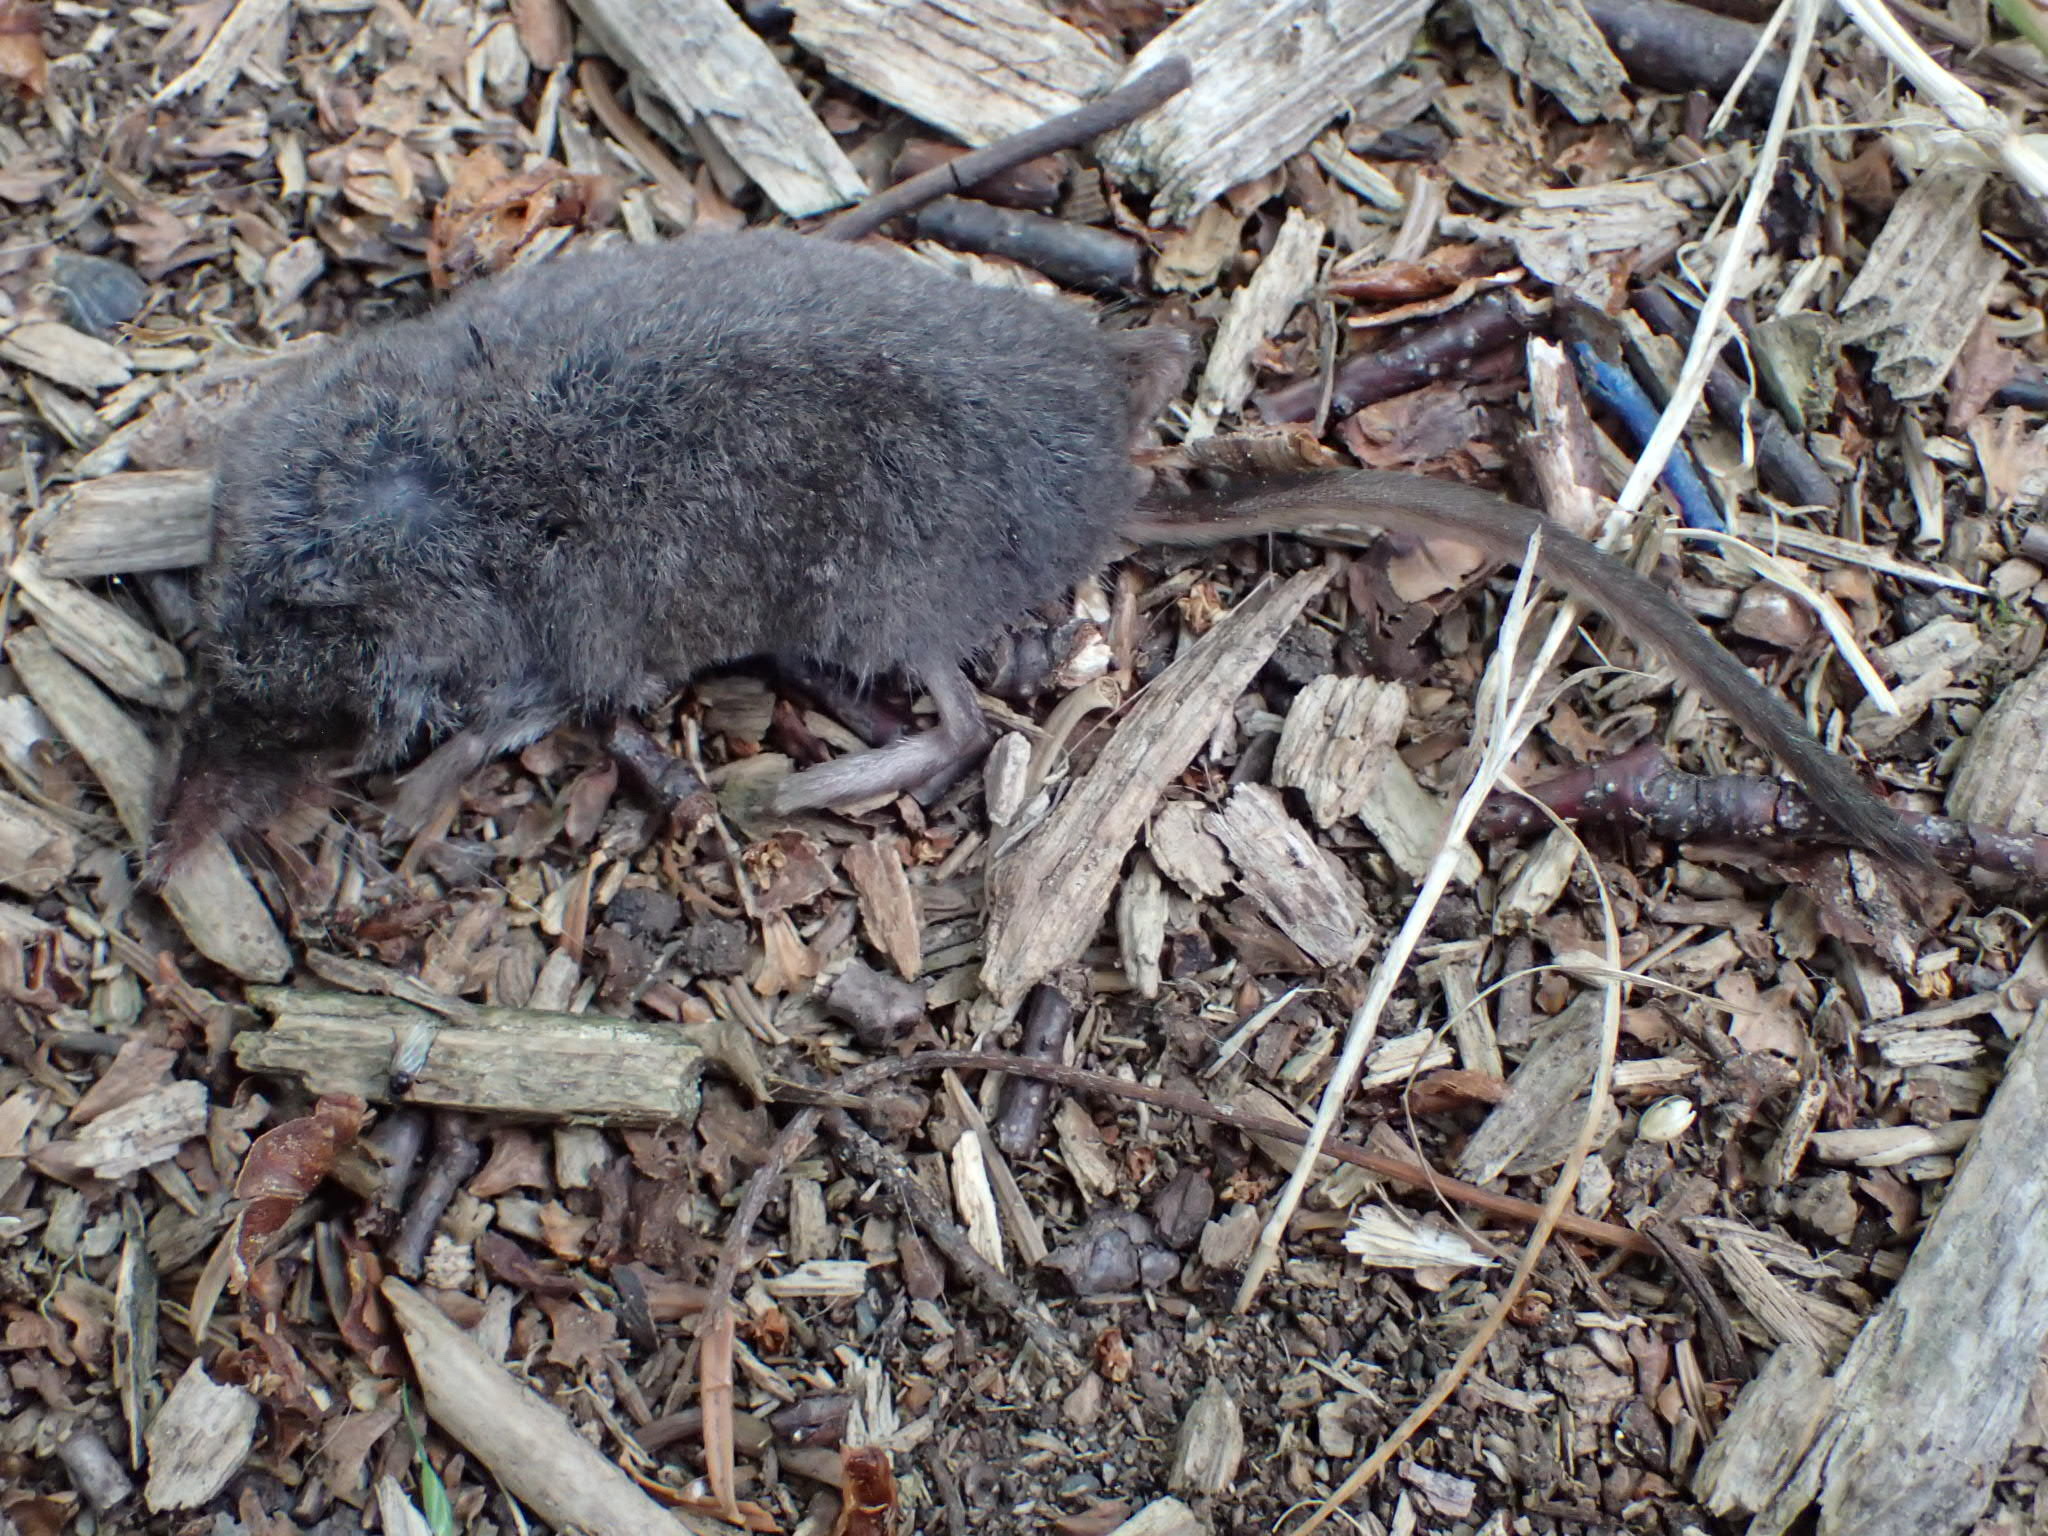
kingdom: Animalia
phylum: Chordata
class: Mammalia
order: Soricomorpha
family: Soricidae
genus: Sorex
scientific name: Sorex fumeus
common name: Smoky shrew
